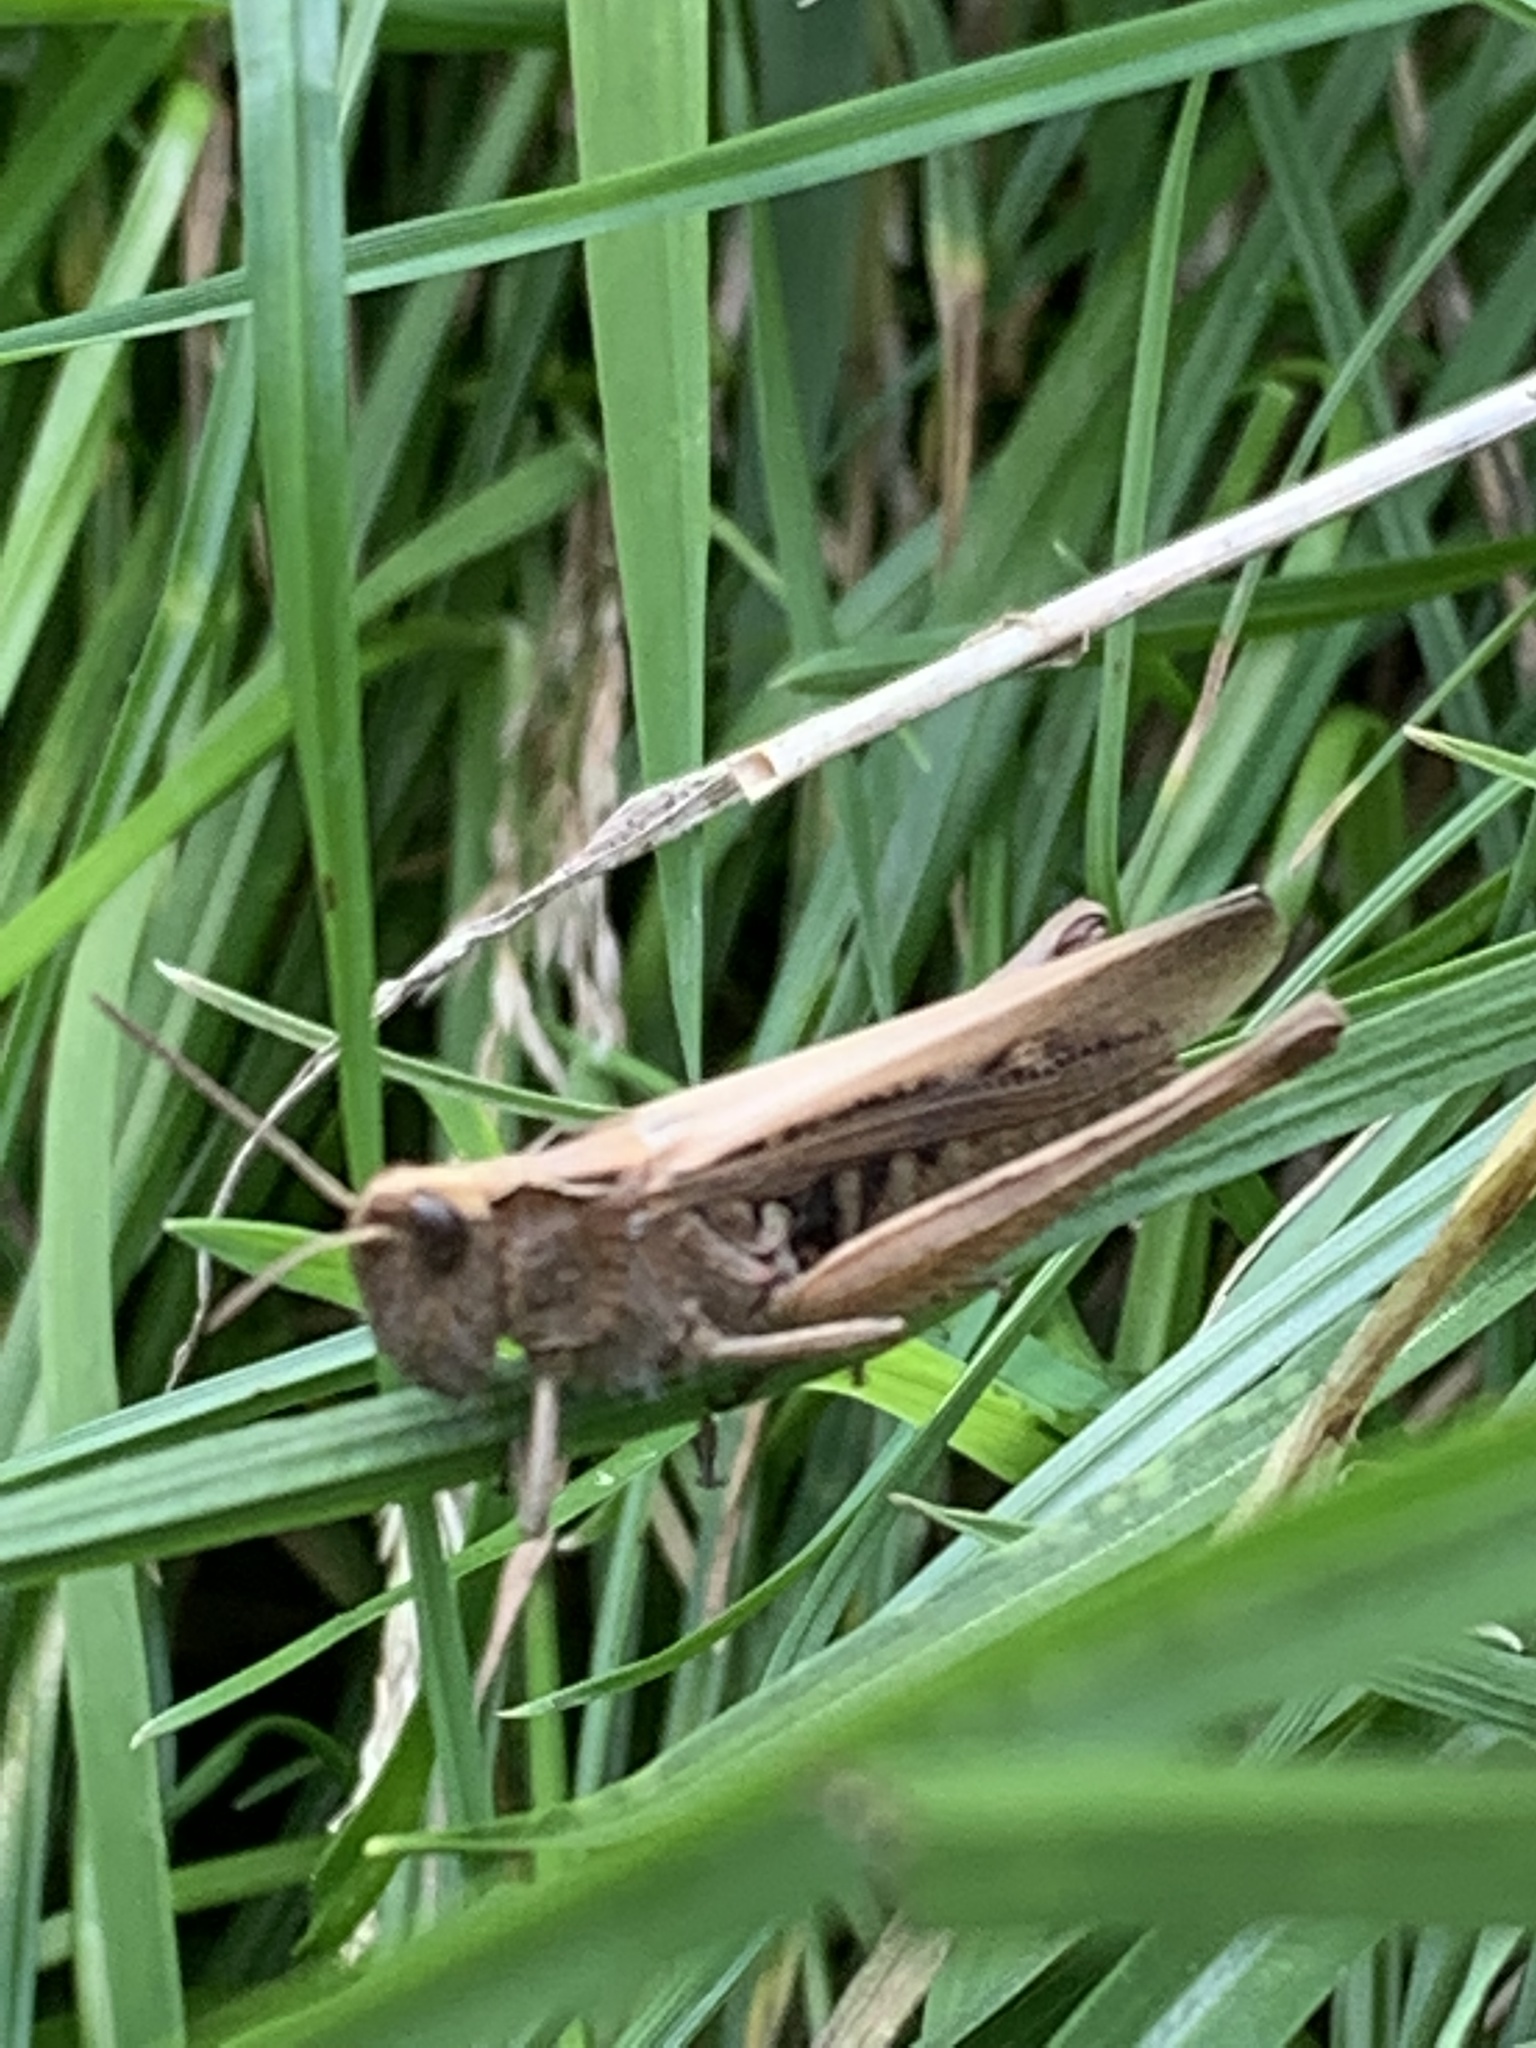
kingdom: Animalia
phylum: Arthropoda
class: Insecta
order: Orthoptera
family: Acrididae
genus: Chorthippus
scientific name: Chorthippus brunneus
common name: Field grasshopper
